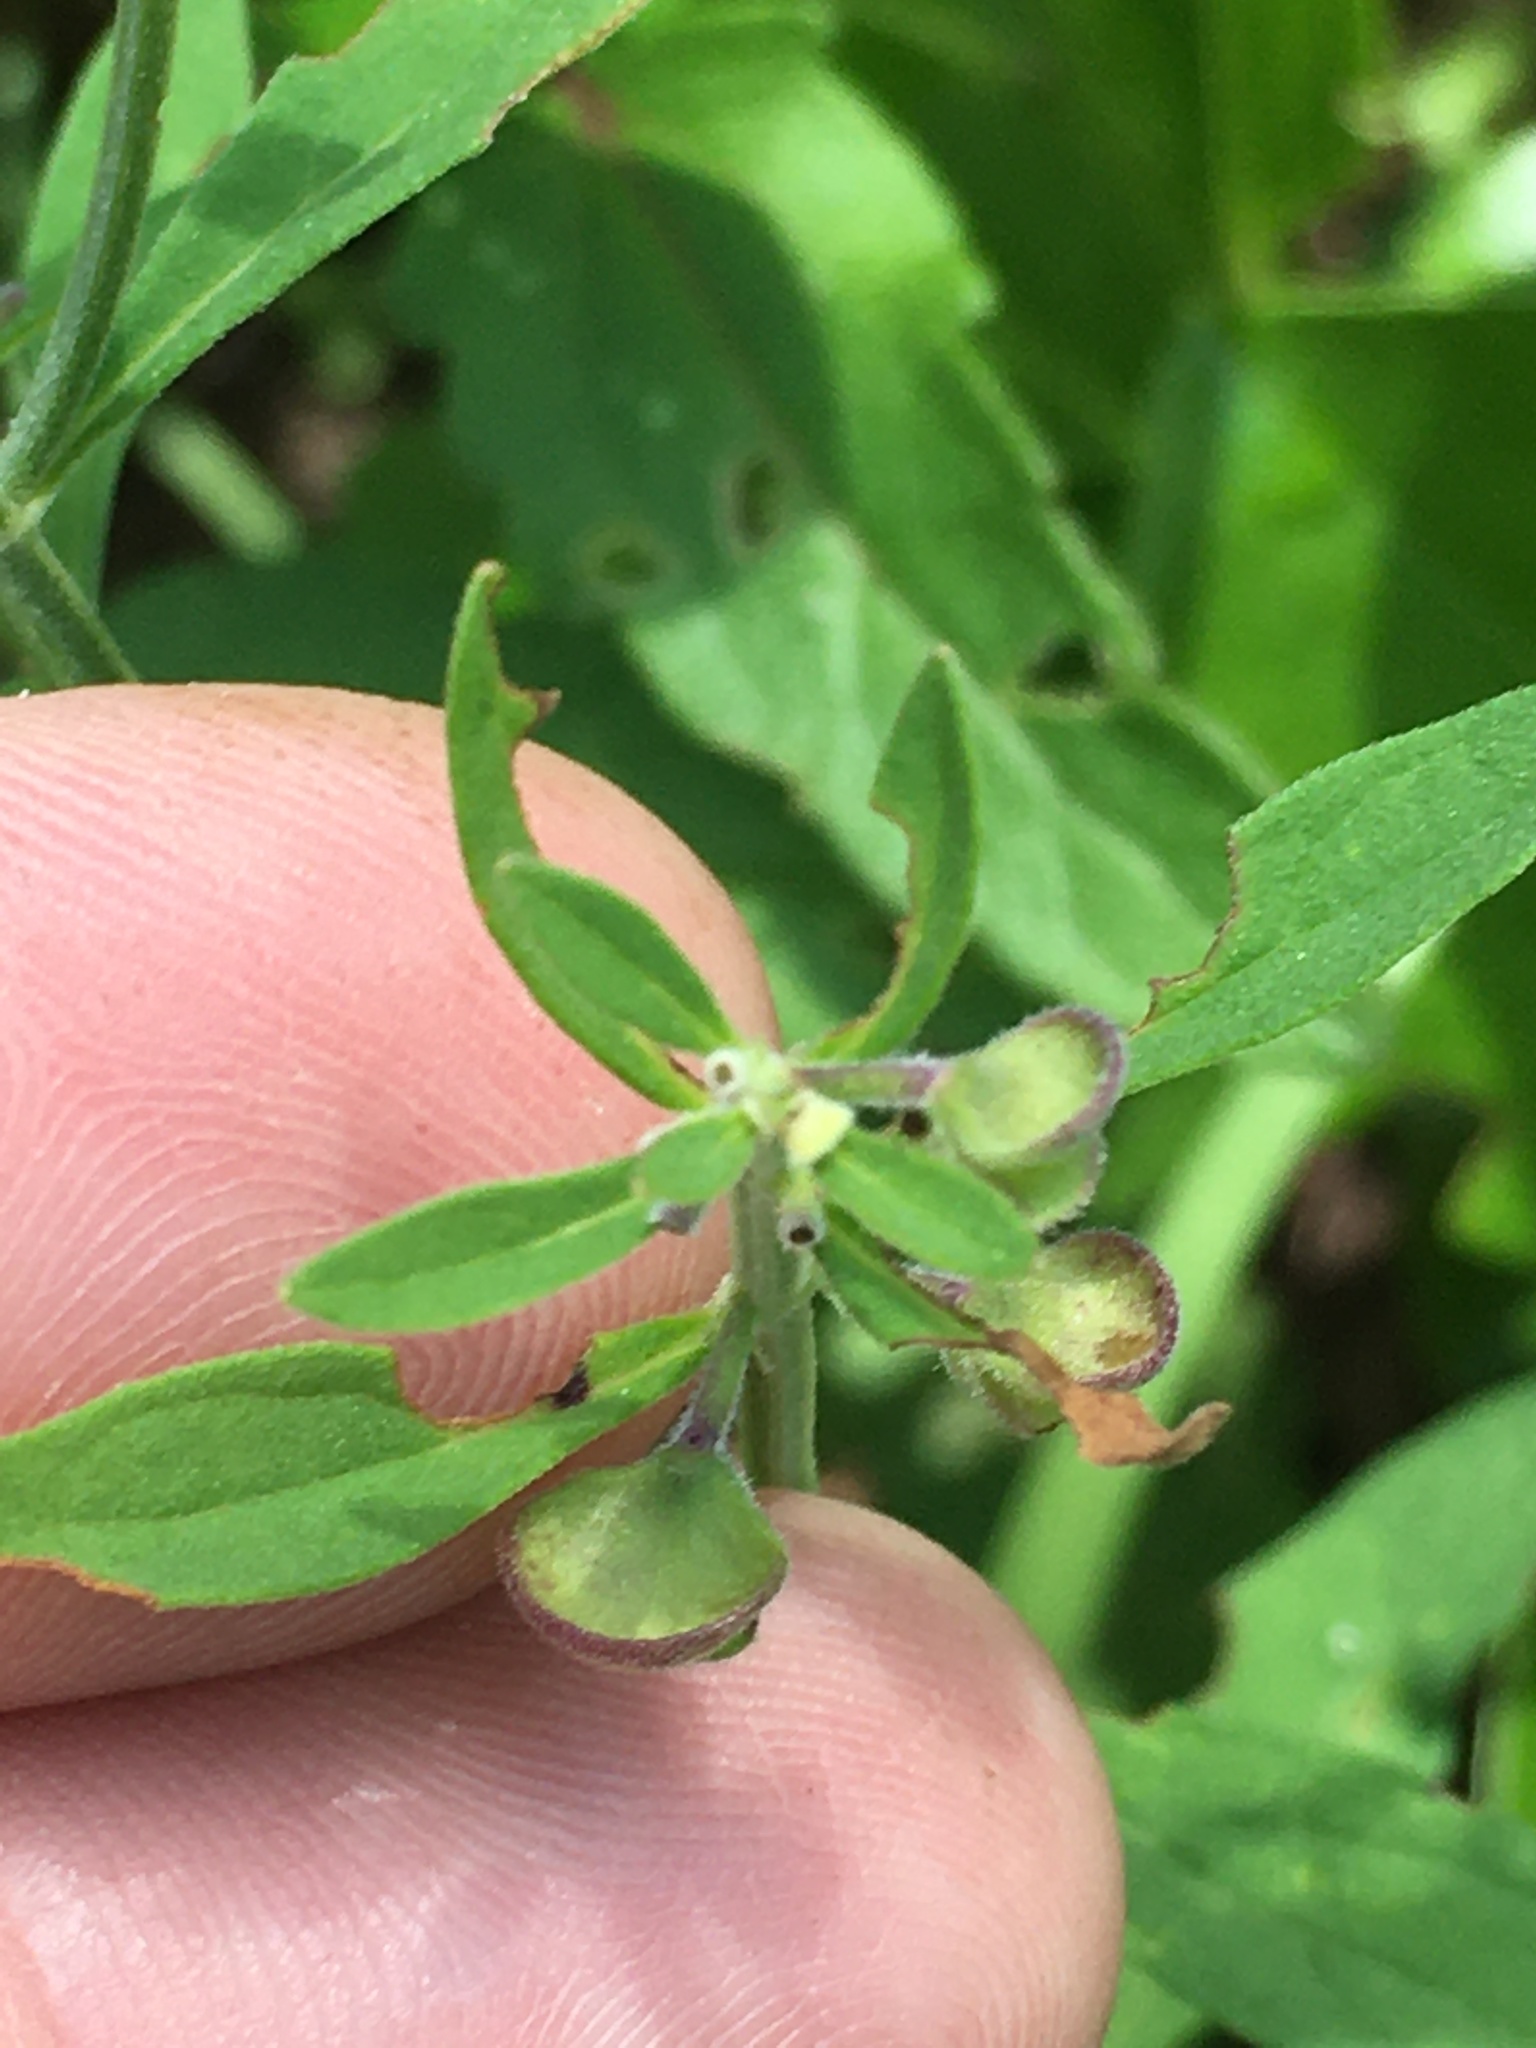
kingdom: Plantae
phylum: Tracheophyta
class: Magnoliopsida
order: Lamiales
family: Lamiaceae
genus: Scutellaria
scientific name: Scutellaria integrifolia
